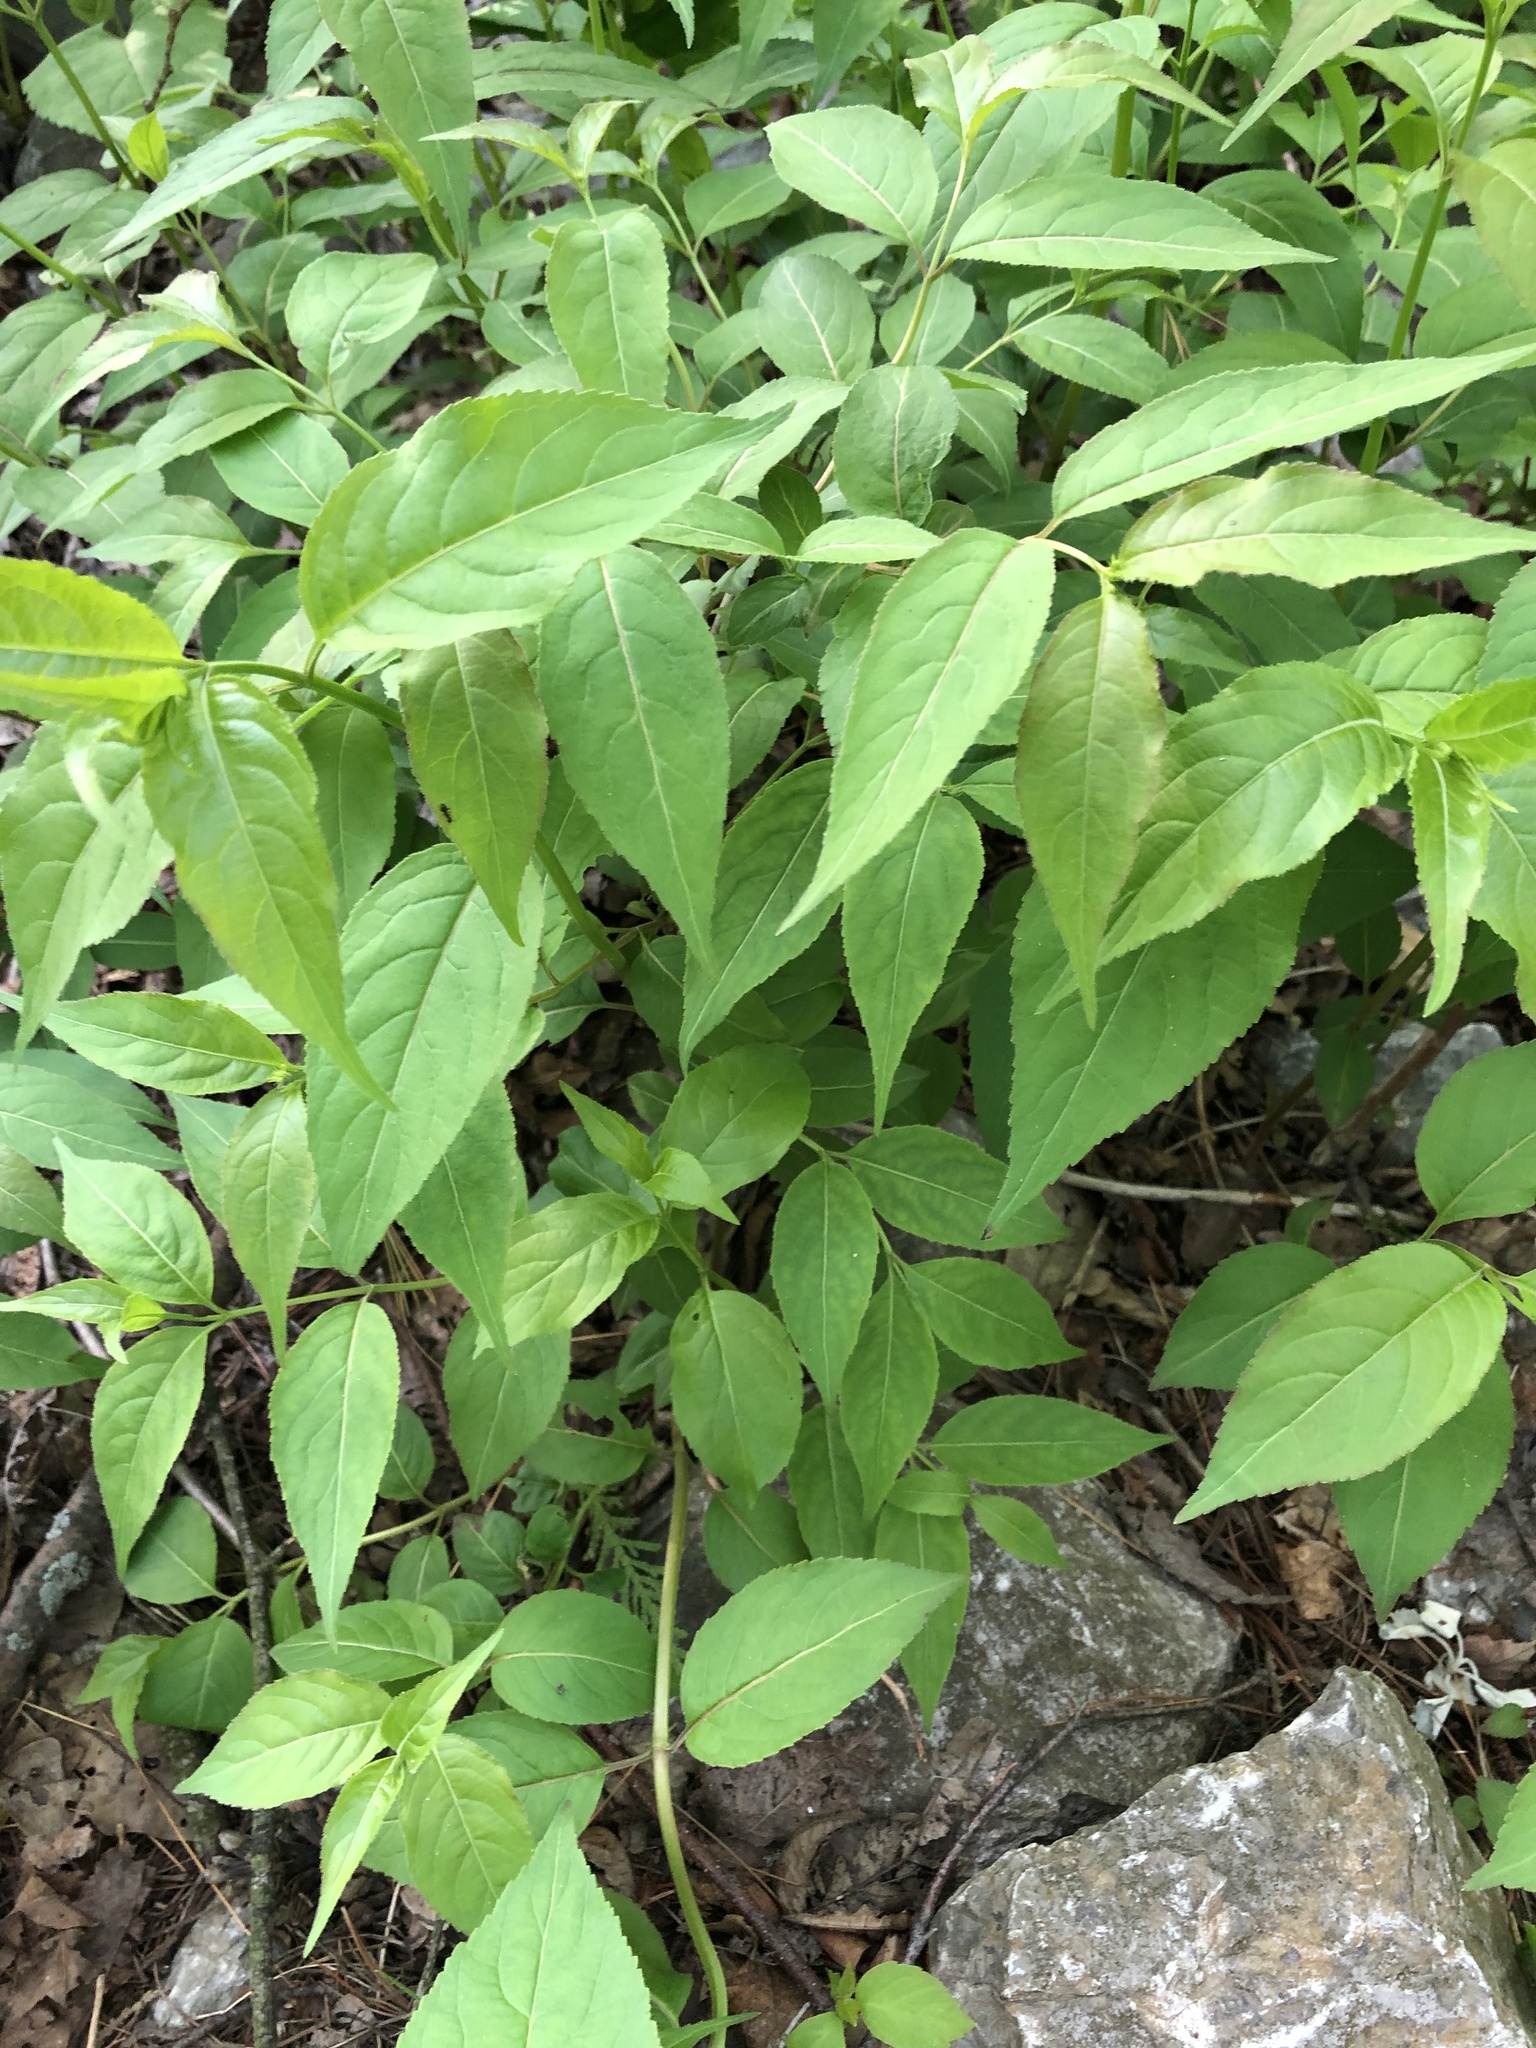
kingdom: Plantae
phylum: Tracheophyta
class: Magnoliopsida
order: Dipsacales
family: Caprifoliaceae
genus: Diervilla
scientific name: Diervilla lonicera
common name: Bush-honeysuckle
